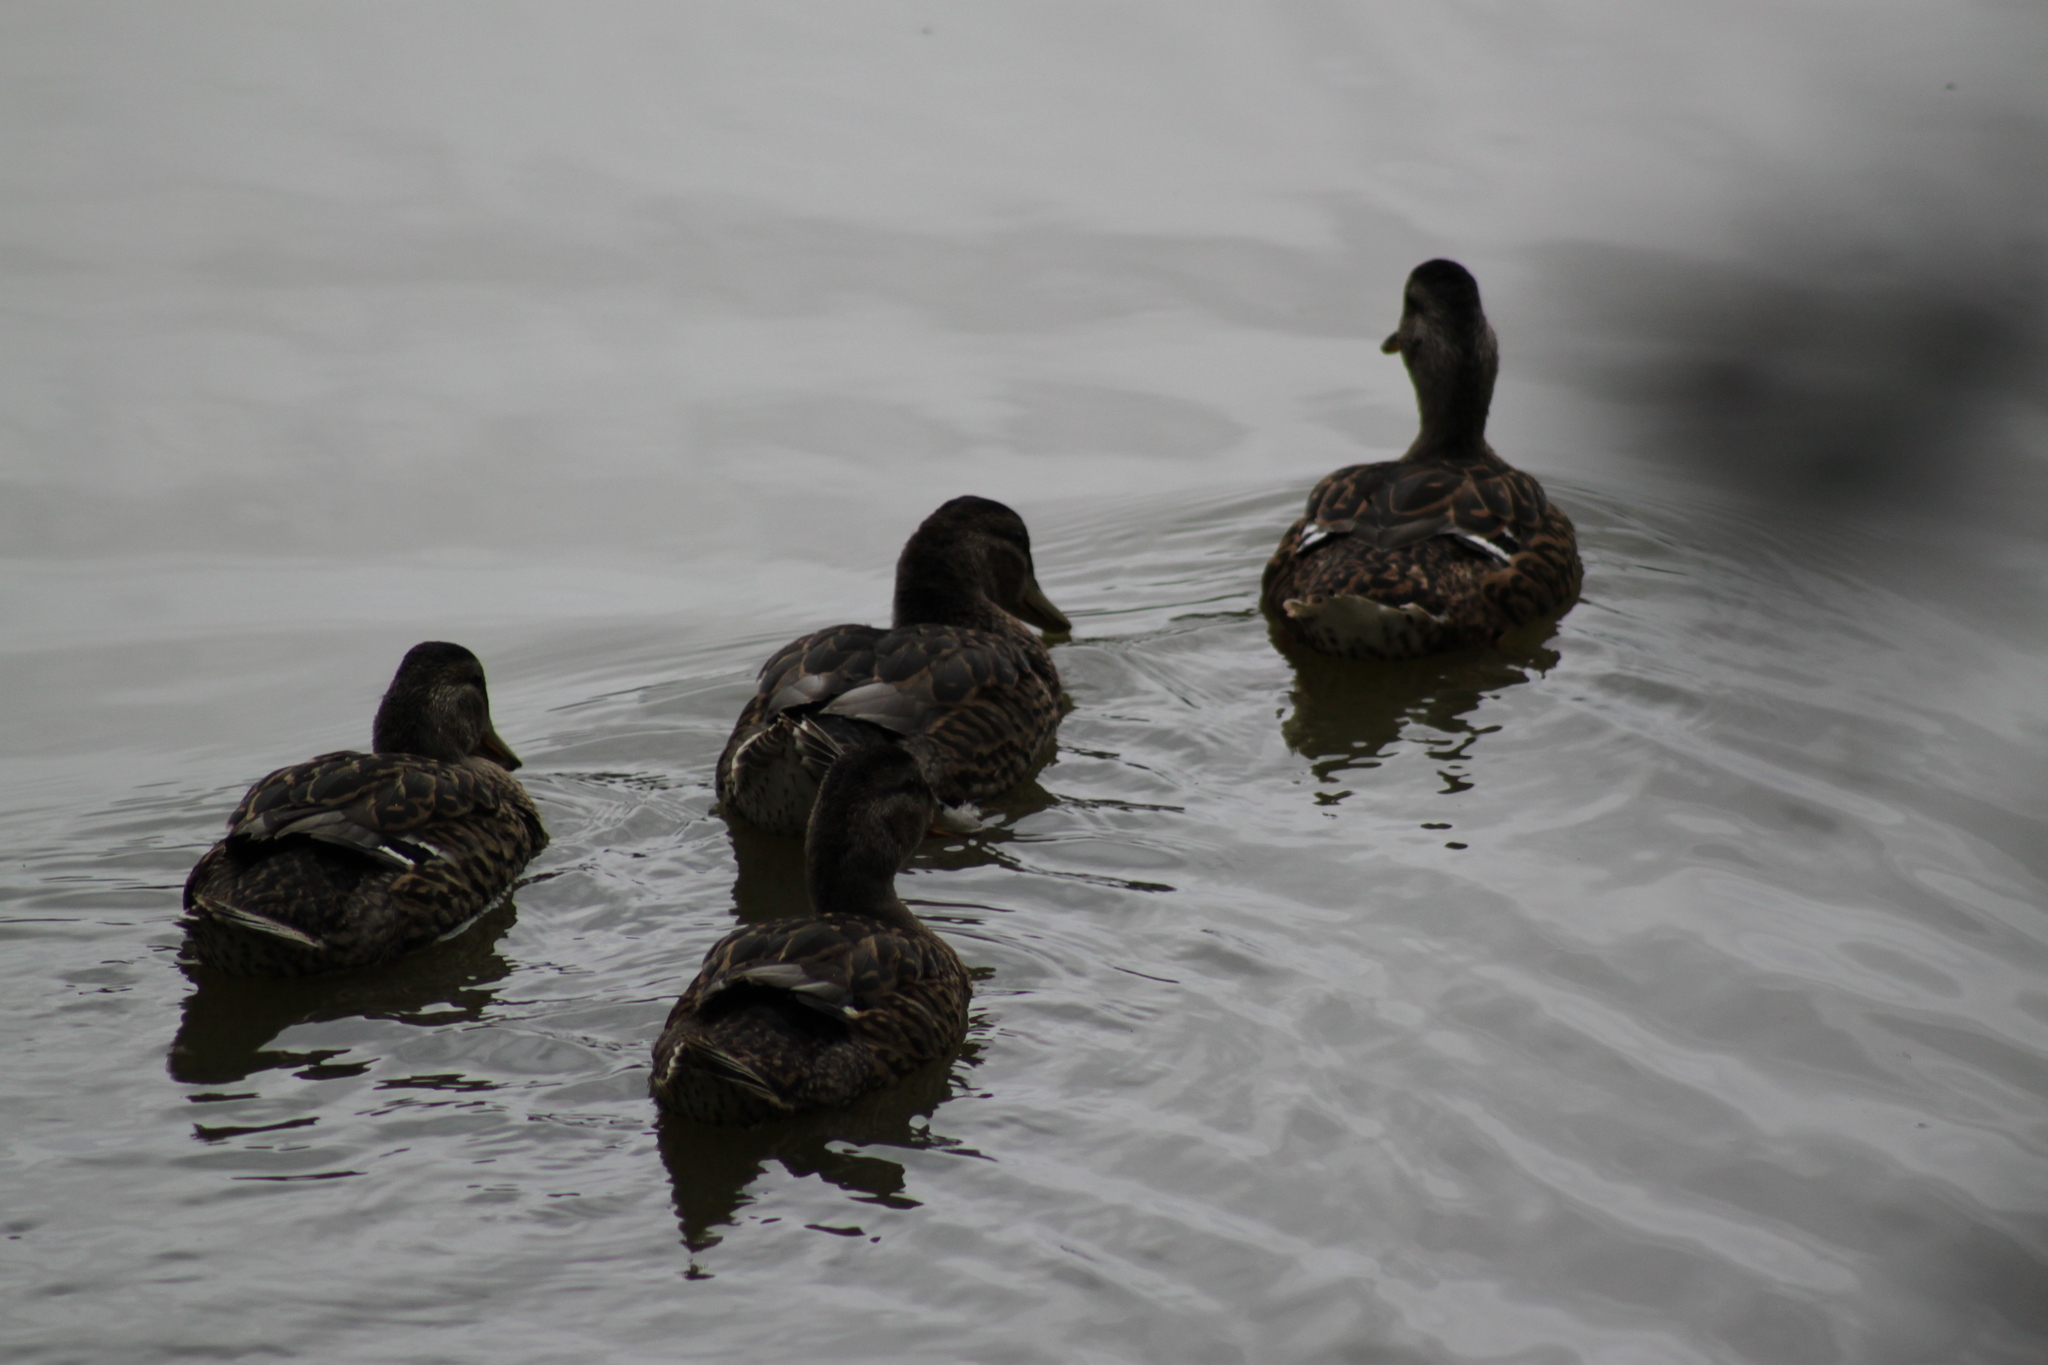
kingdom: Animalia
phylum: Chordata
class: Aves
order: Anseriformes
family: Anatidae
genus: Anas
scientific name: Anas platyrhynchos
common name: Mallard
